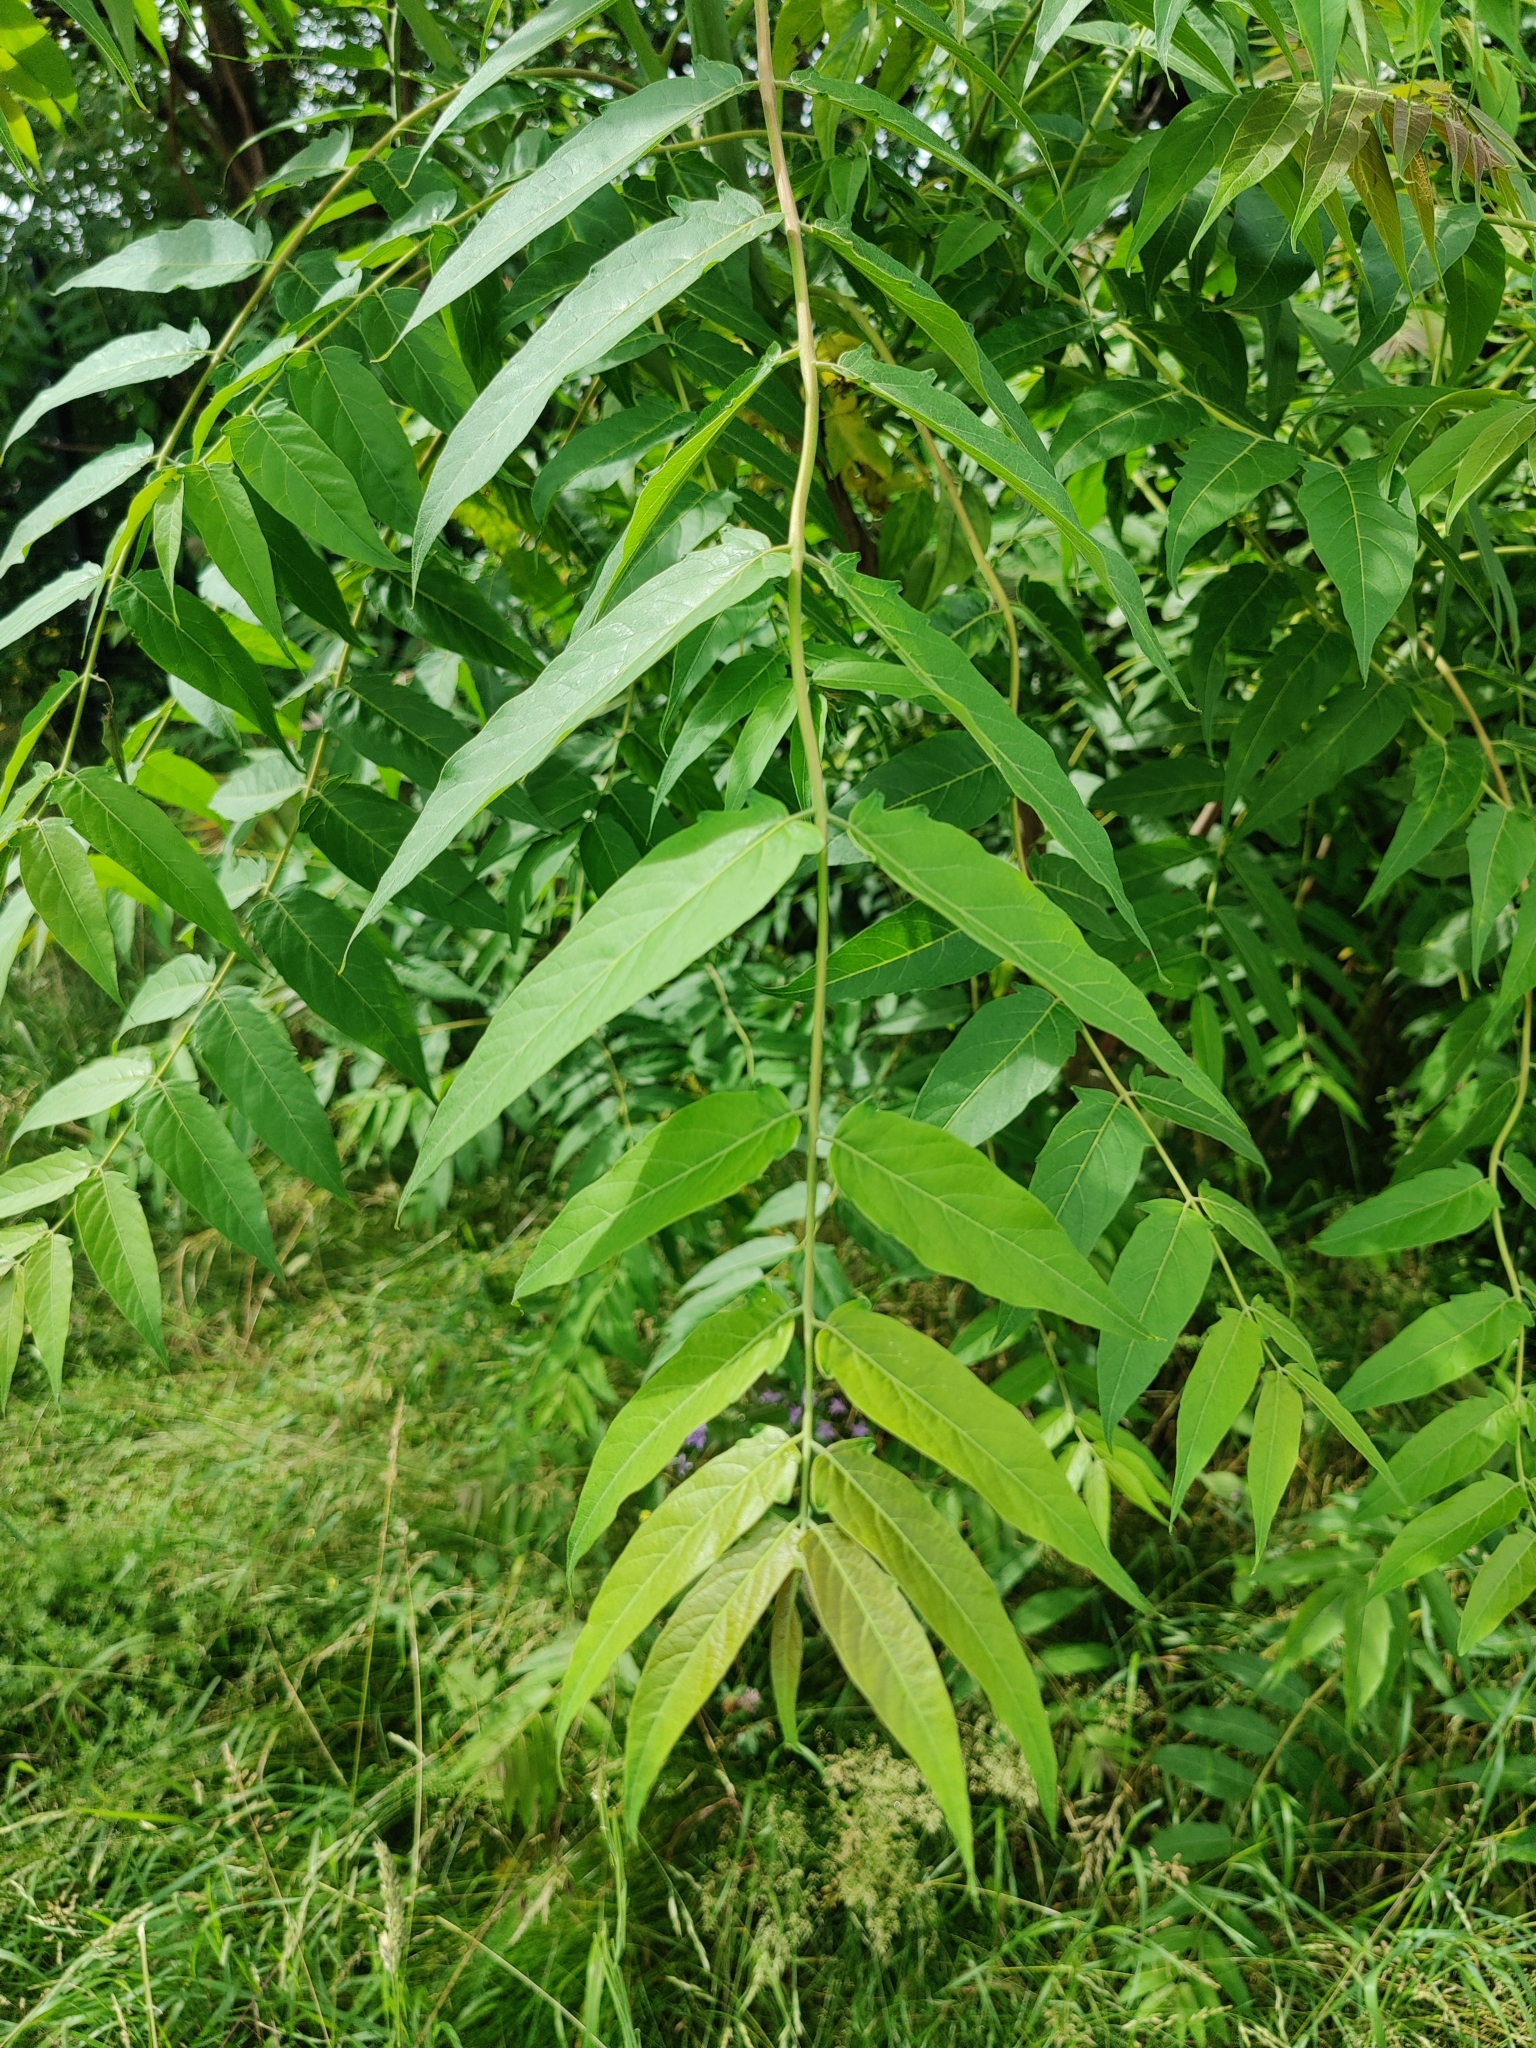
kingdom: Plantae
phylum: Tracheophyta
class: Magnoliopsida
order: Sapindales
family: Simaroubaceae
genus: Ailanthus
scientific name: Ailanthus altissima
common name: Tree-of-heaven
